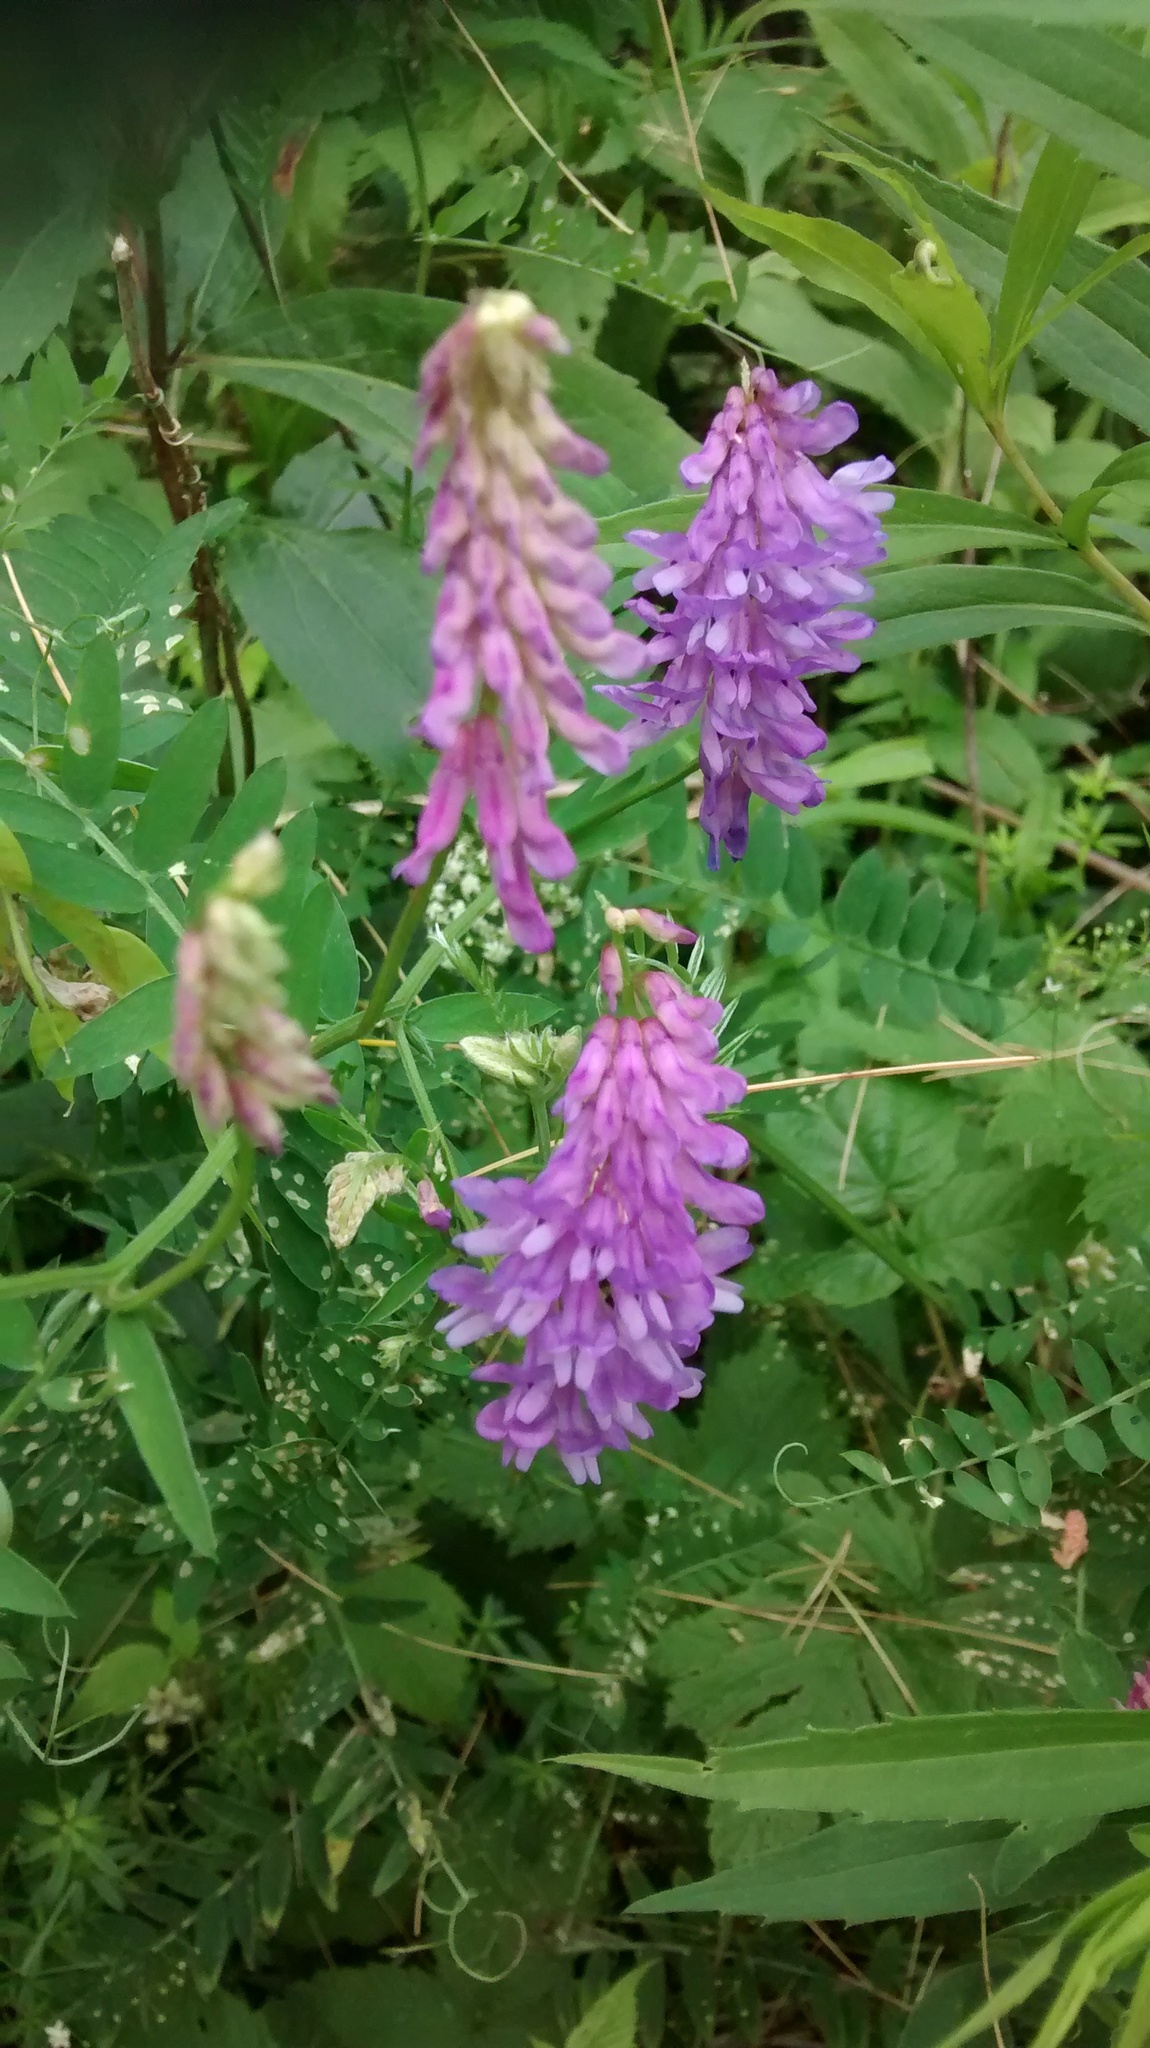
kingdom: Plantae
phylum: Tracheophyta
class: Magnoliopsida
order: Fabales
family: Fabaceae
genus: Vicia
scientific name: Vicia cracca
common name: Bird vetch
